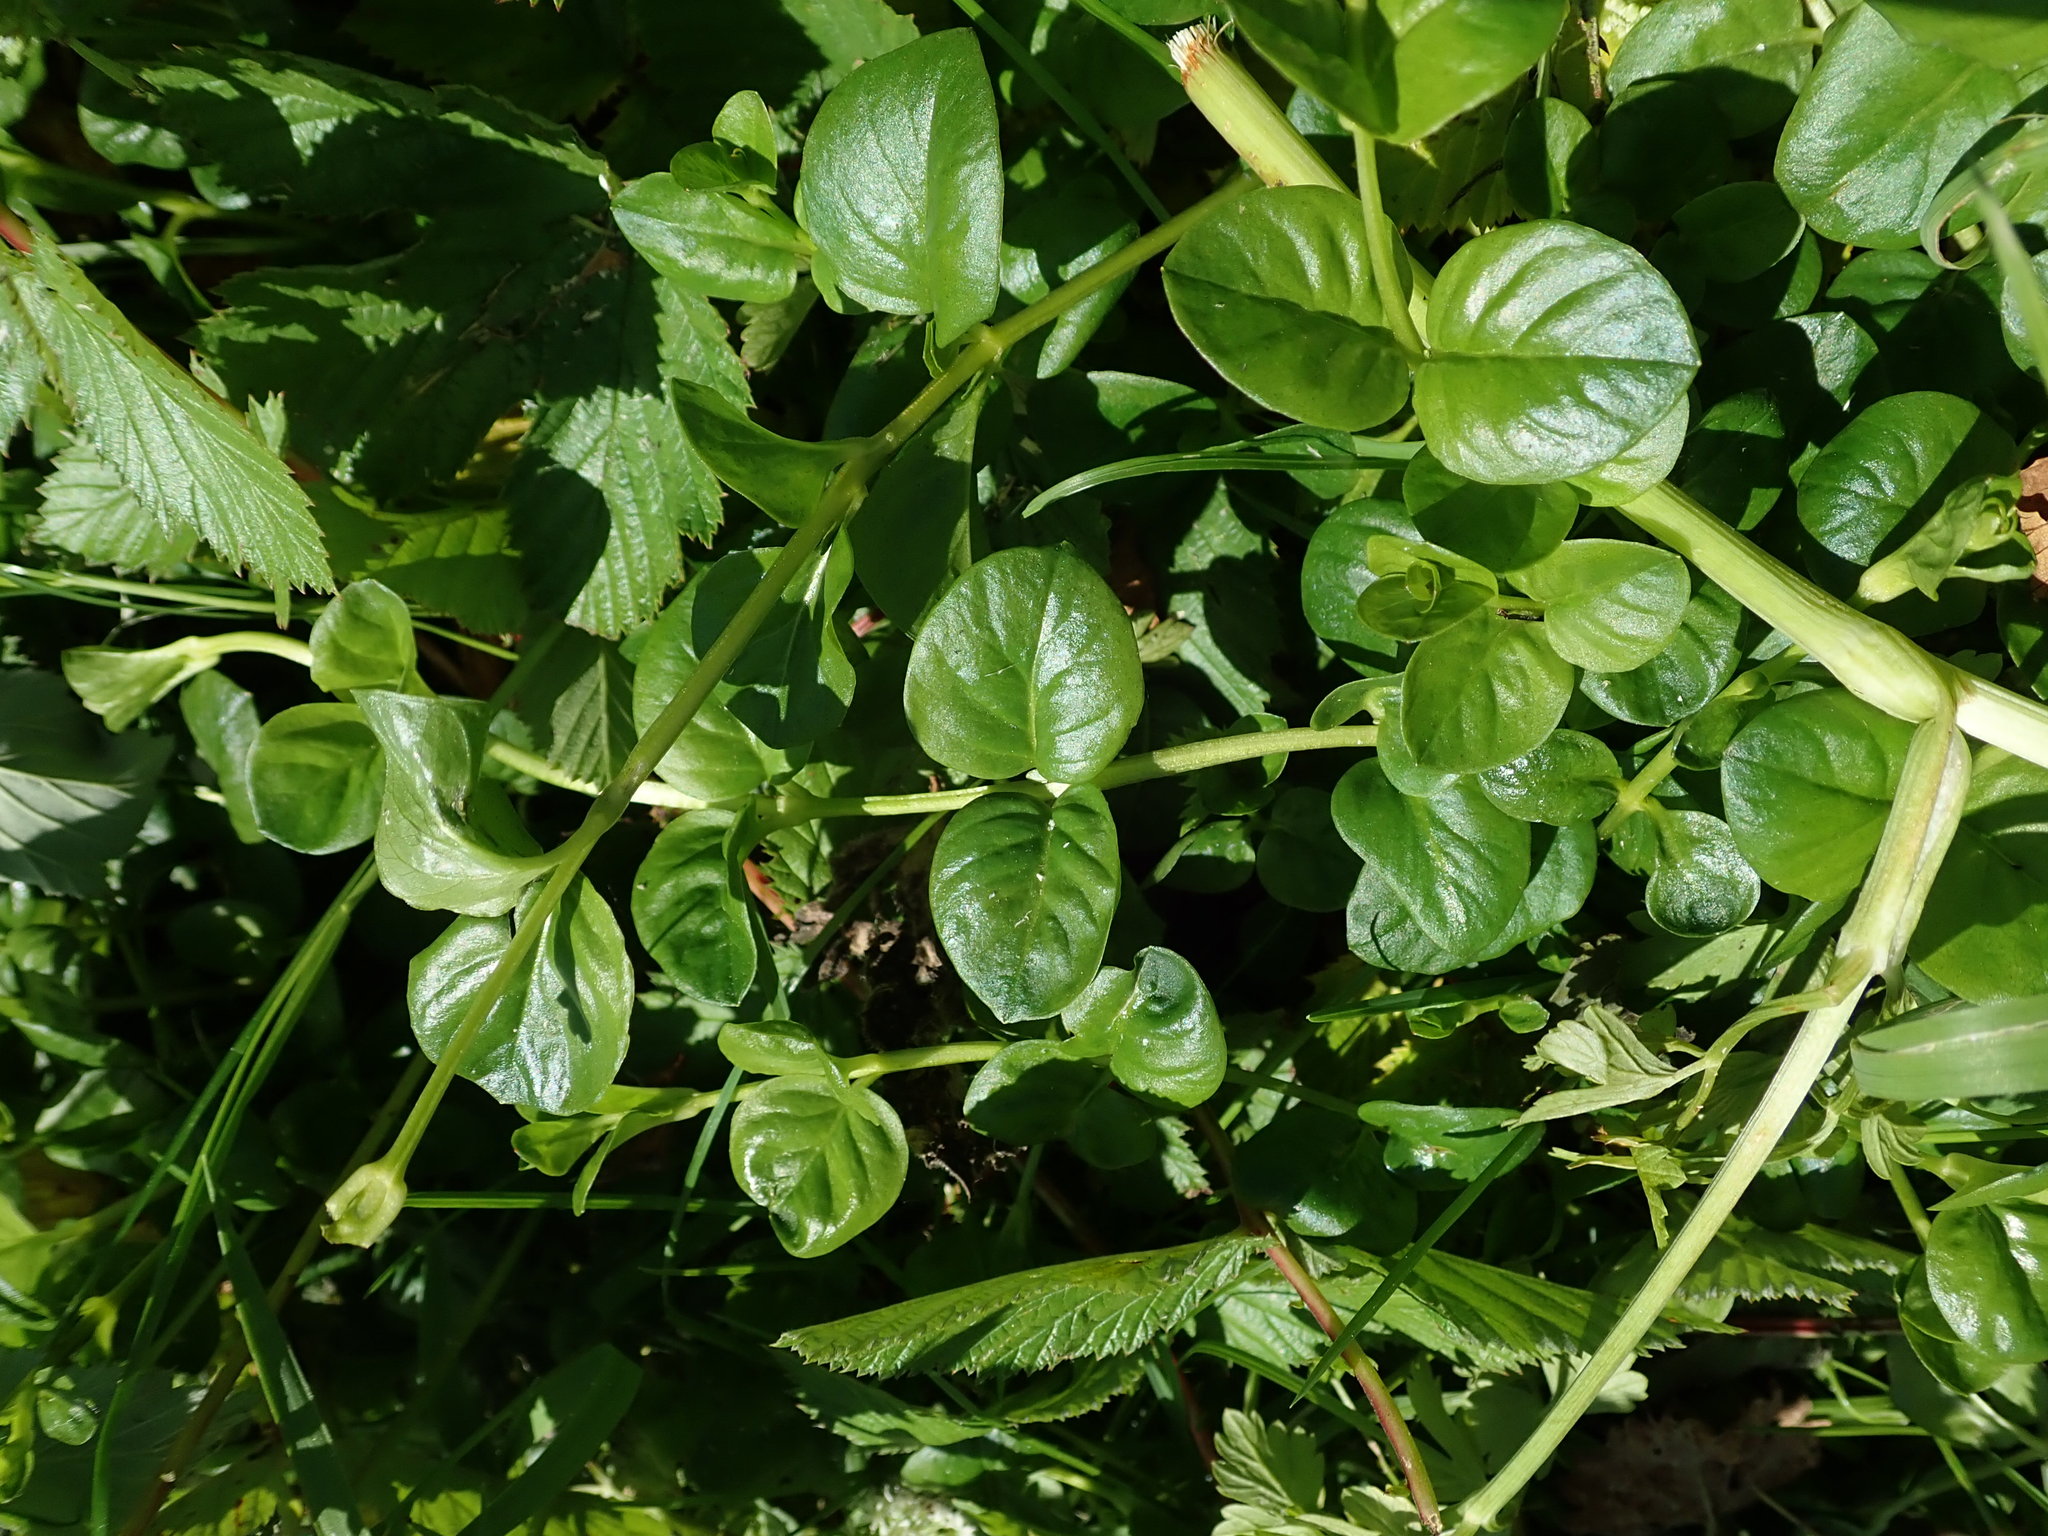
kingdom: Plantae
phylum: Tracheophyta
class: Magnoliopsida
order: Ericales
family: Primulaceae
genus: Lysimachia
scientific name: Lysimachia nummularia
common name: Moneywort
